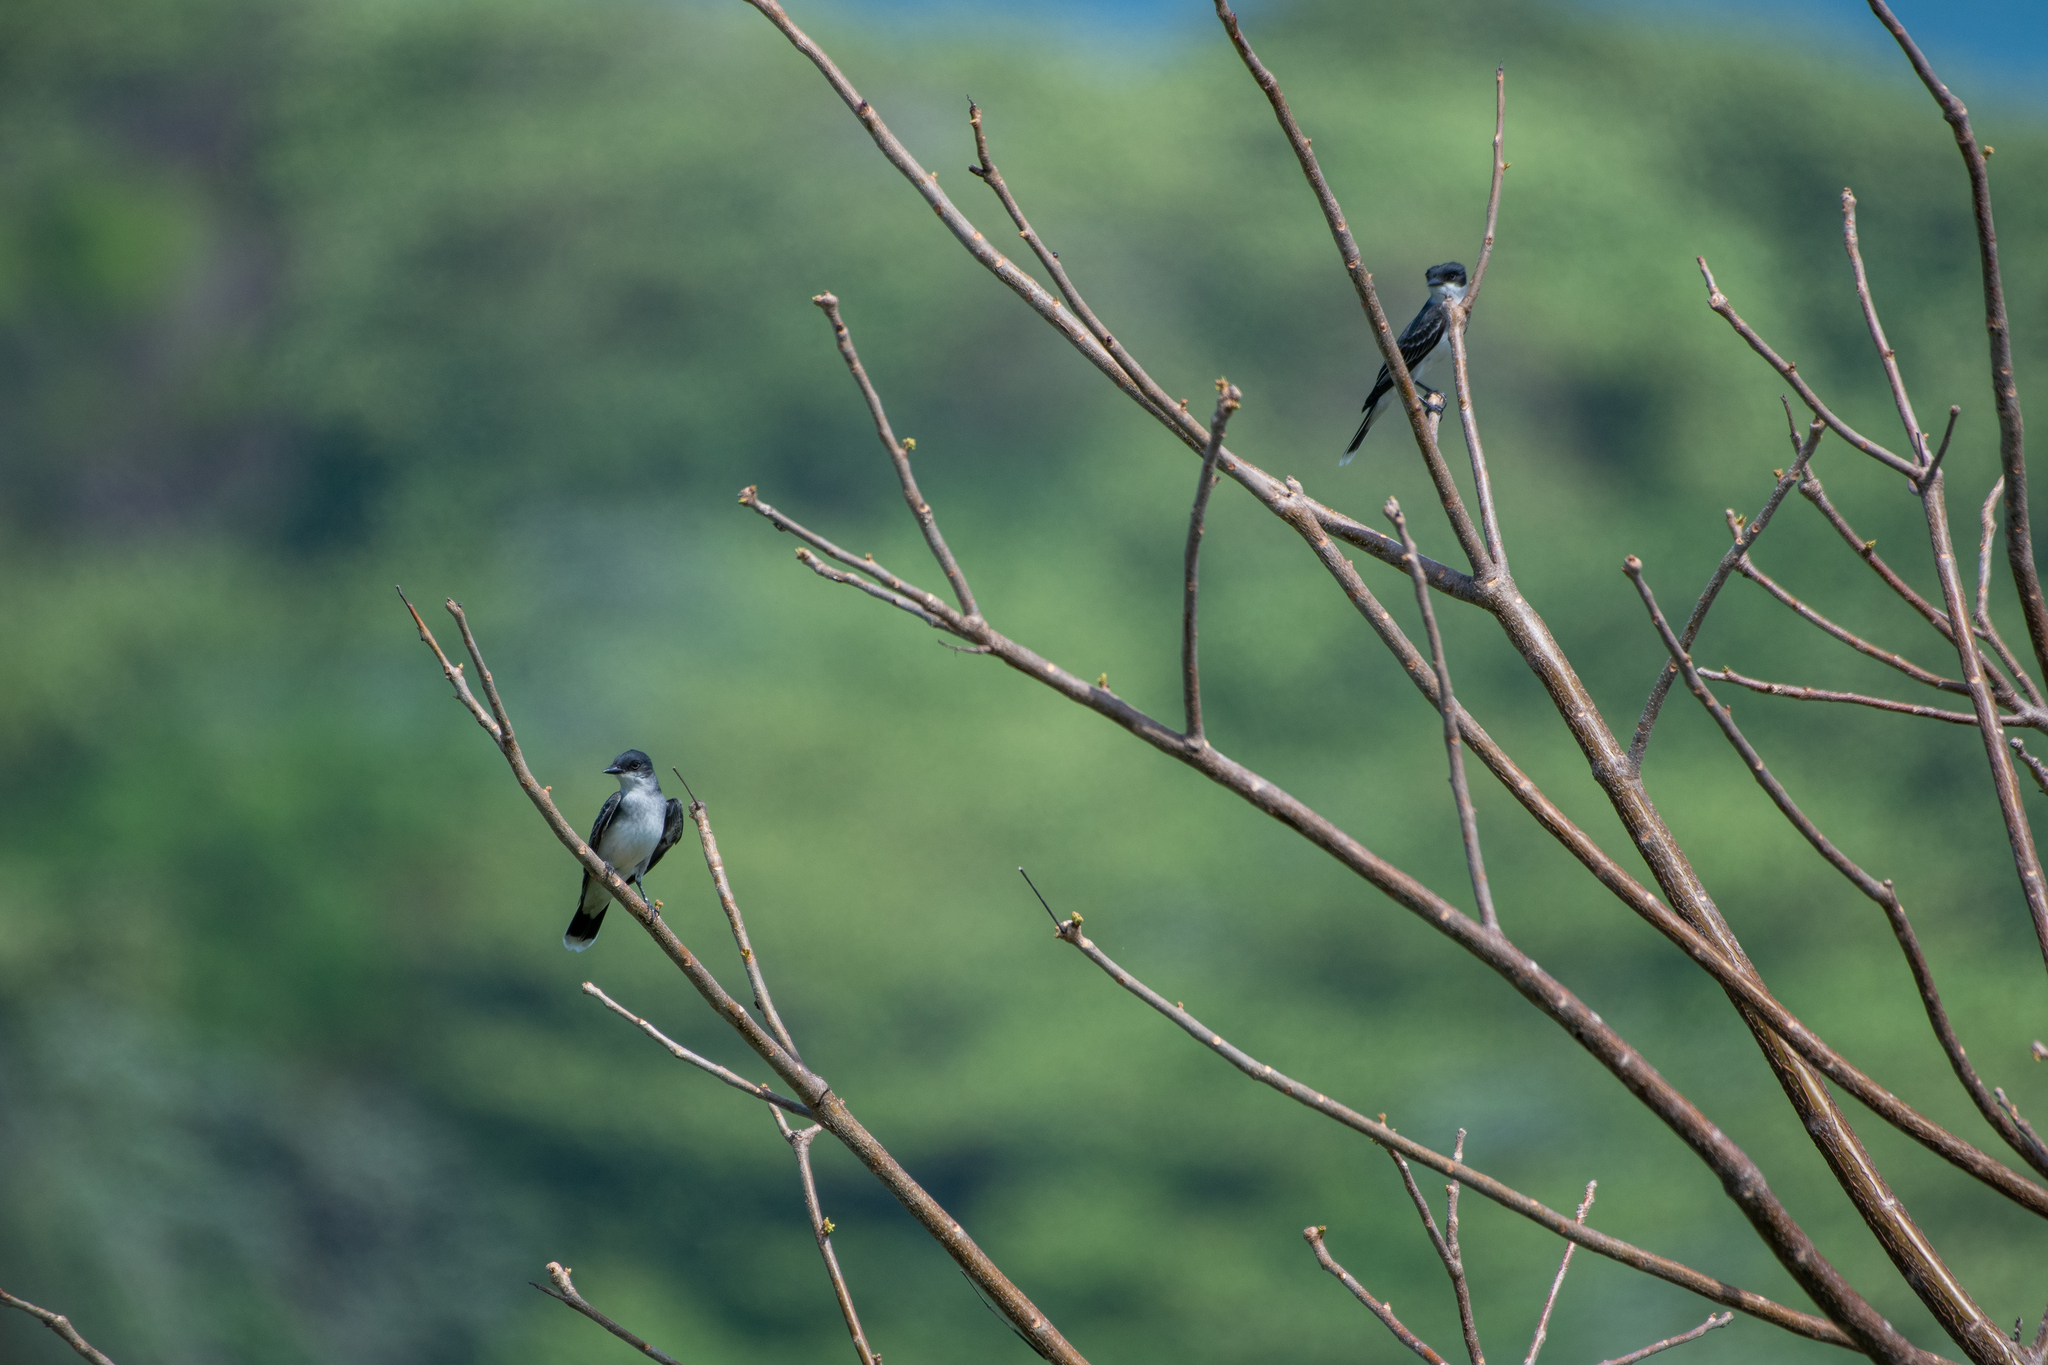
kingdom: Animalia
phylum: Chordata
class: Aves
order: Passeriformes
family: Tyrannidae
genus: Tyrannus
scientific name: Tyrannus tyrannus
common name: Eastern kingbird
